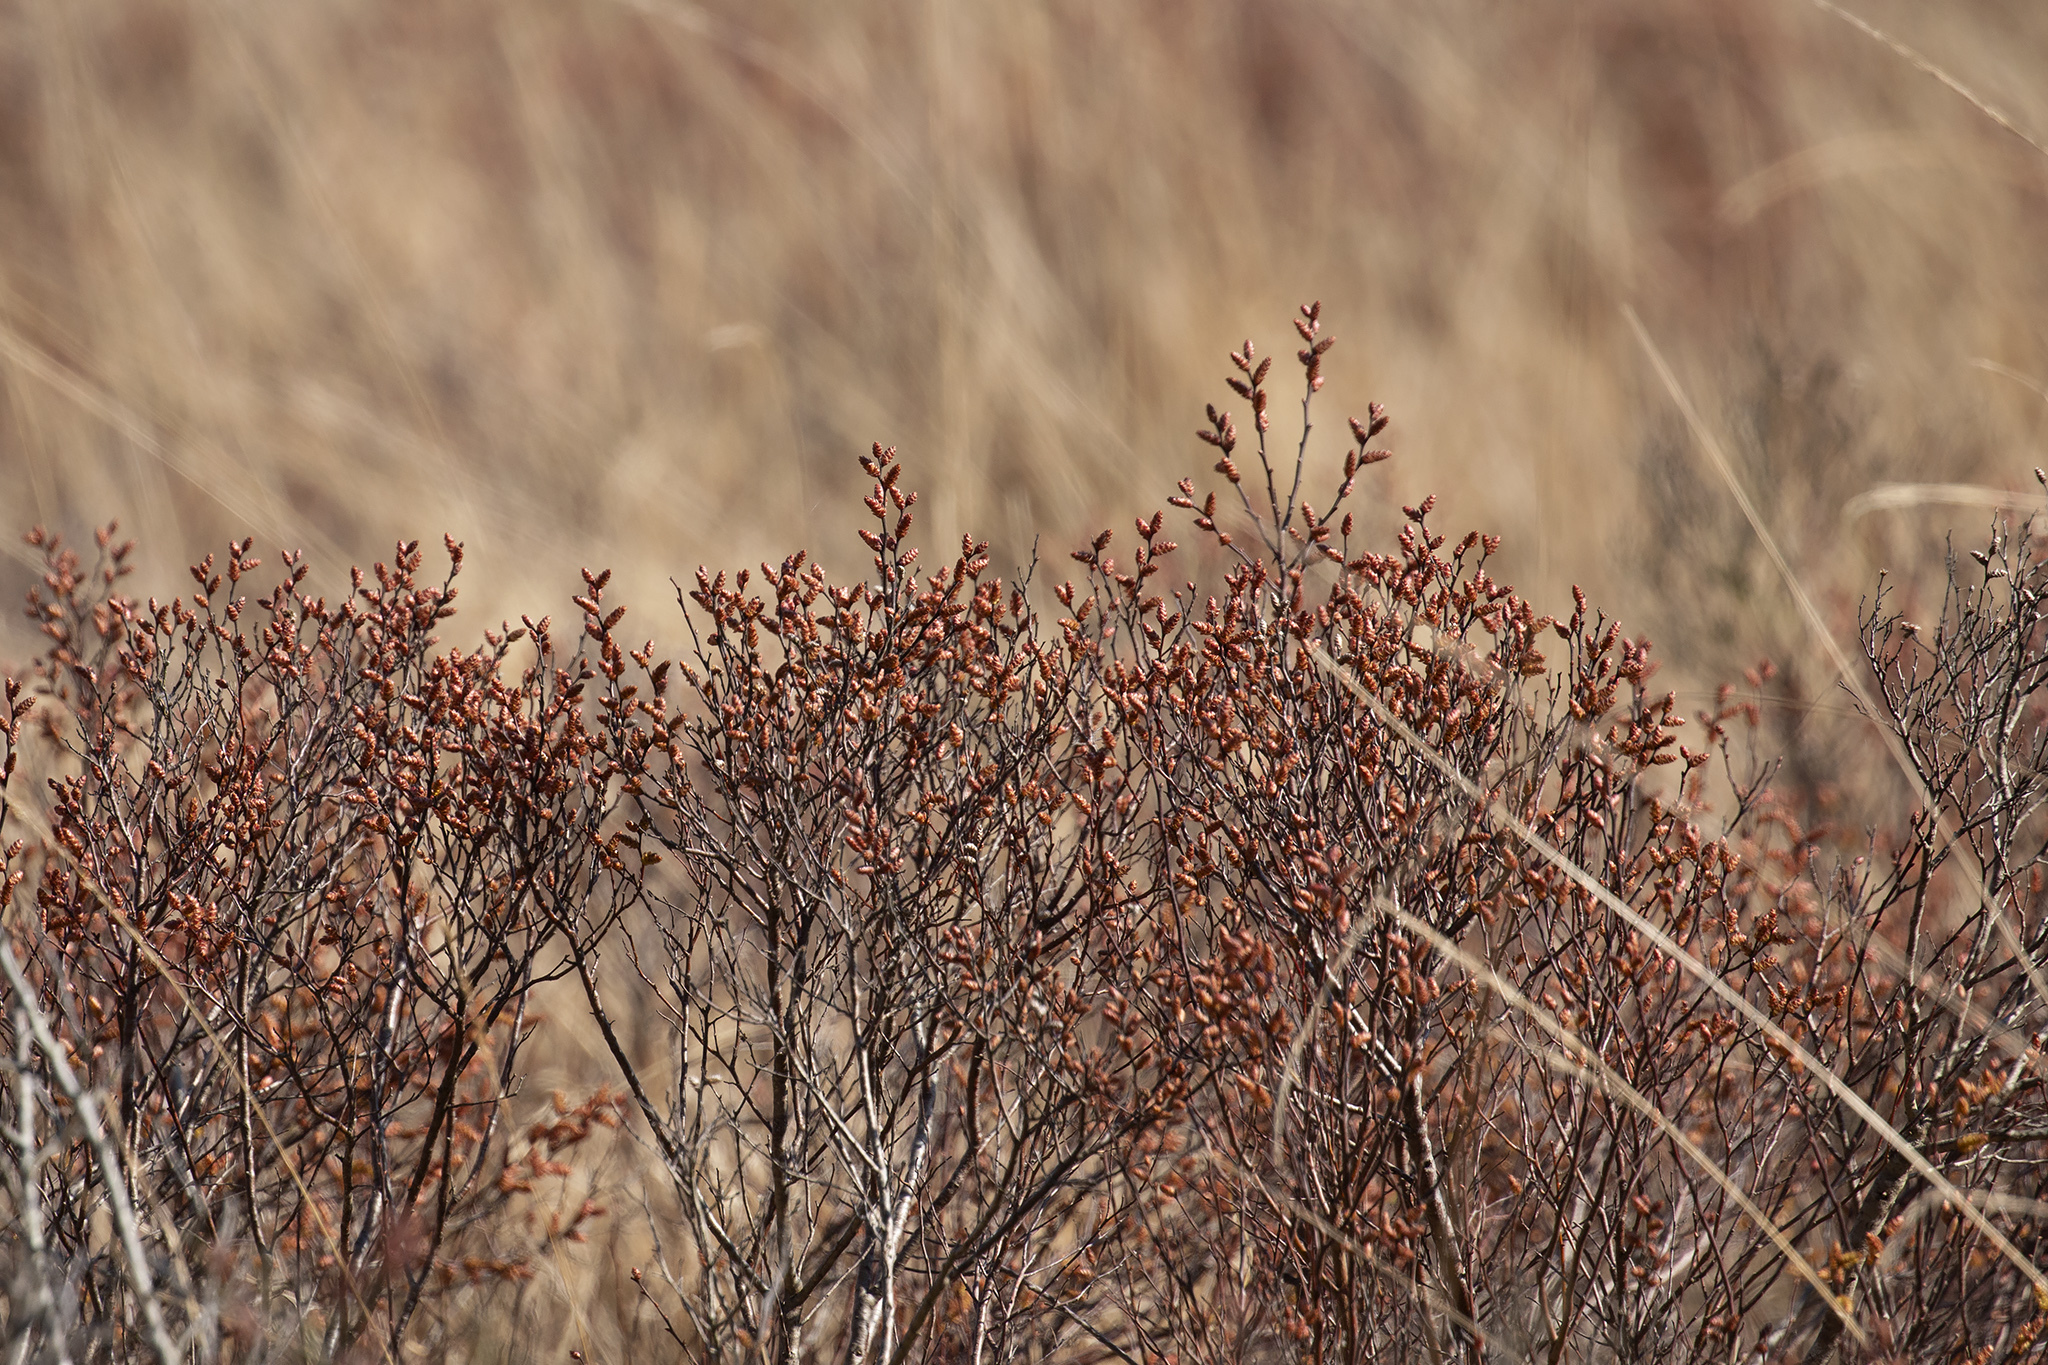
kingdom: Plantae
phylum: Tracheophyta
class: Magnoliopsida
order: Fagales
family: Myricaceae
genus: Myrica
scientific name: Myrica gale
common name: Sweet gale
